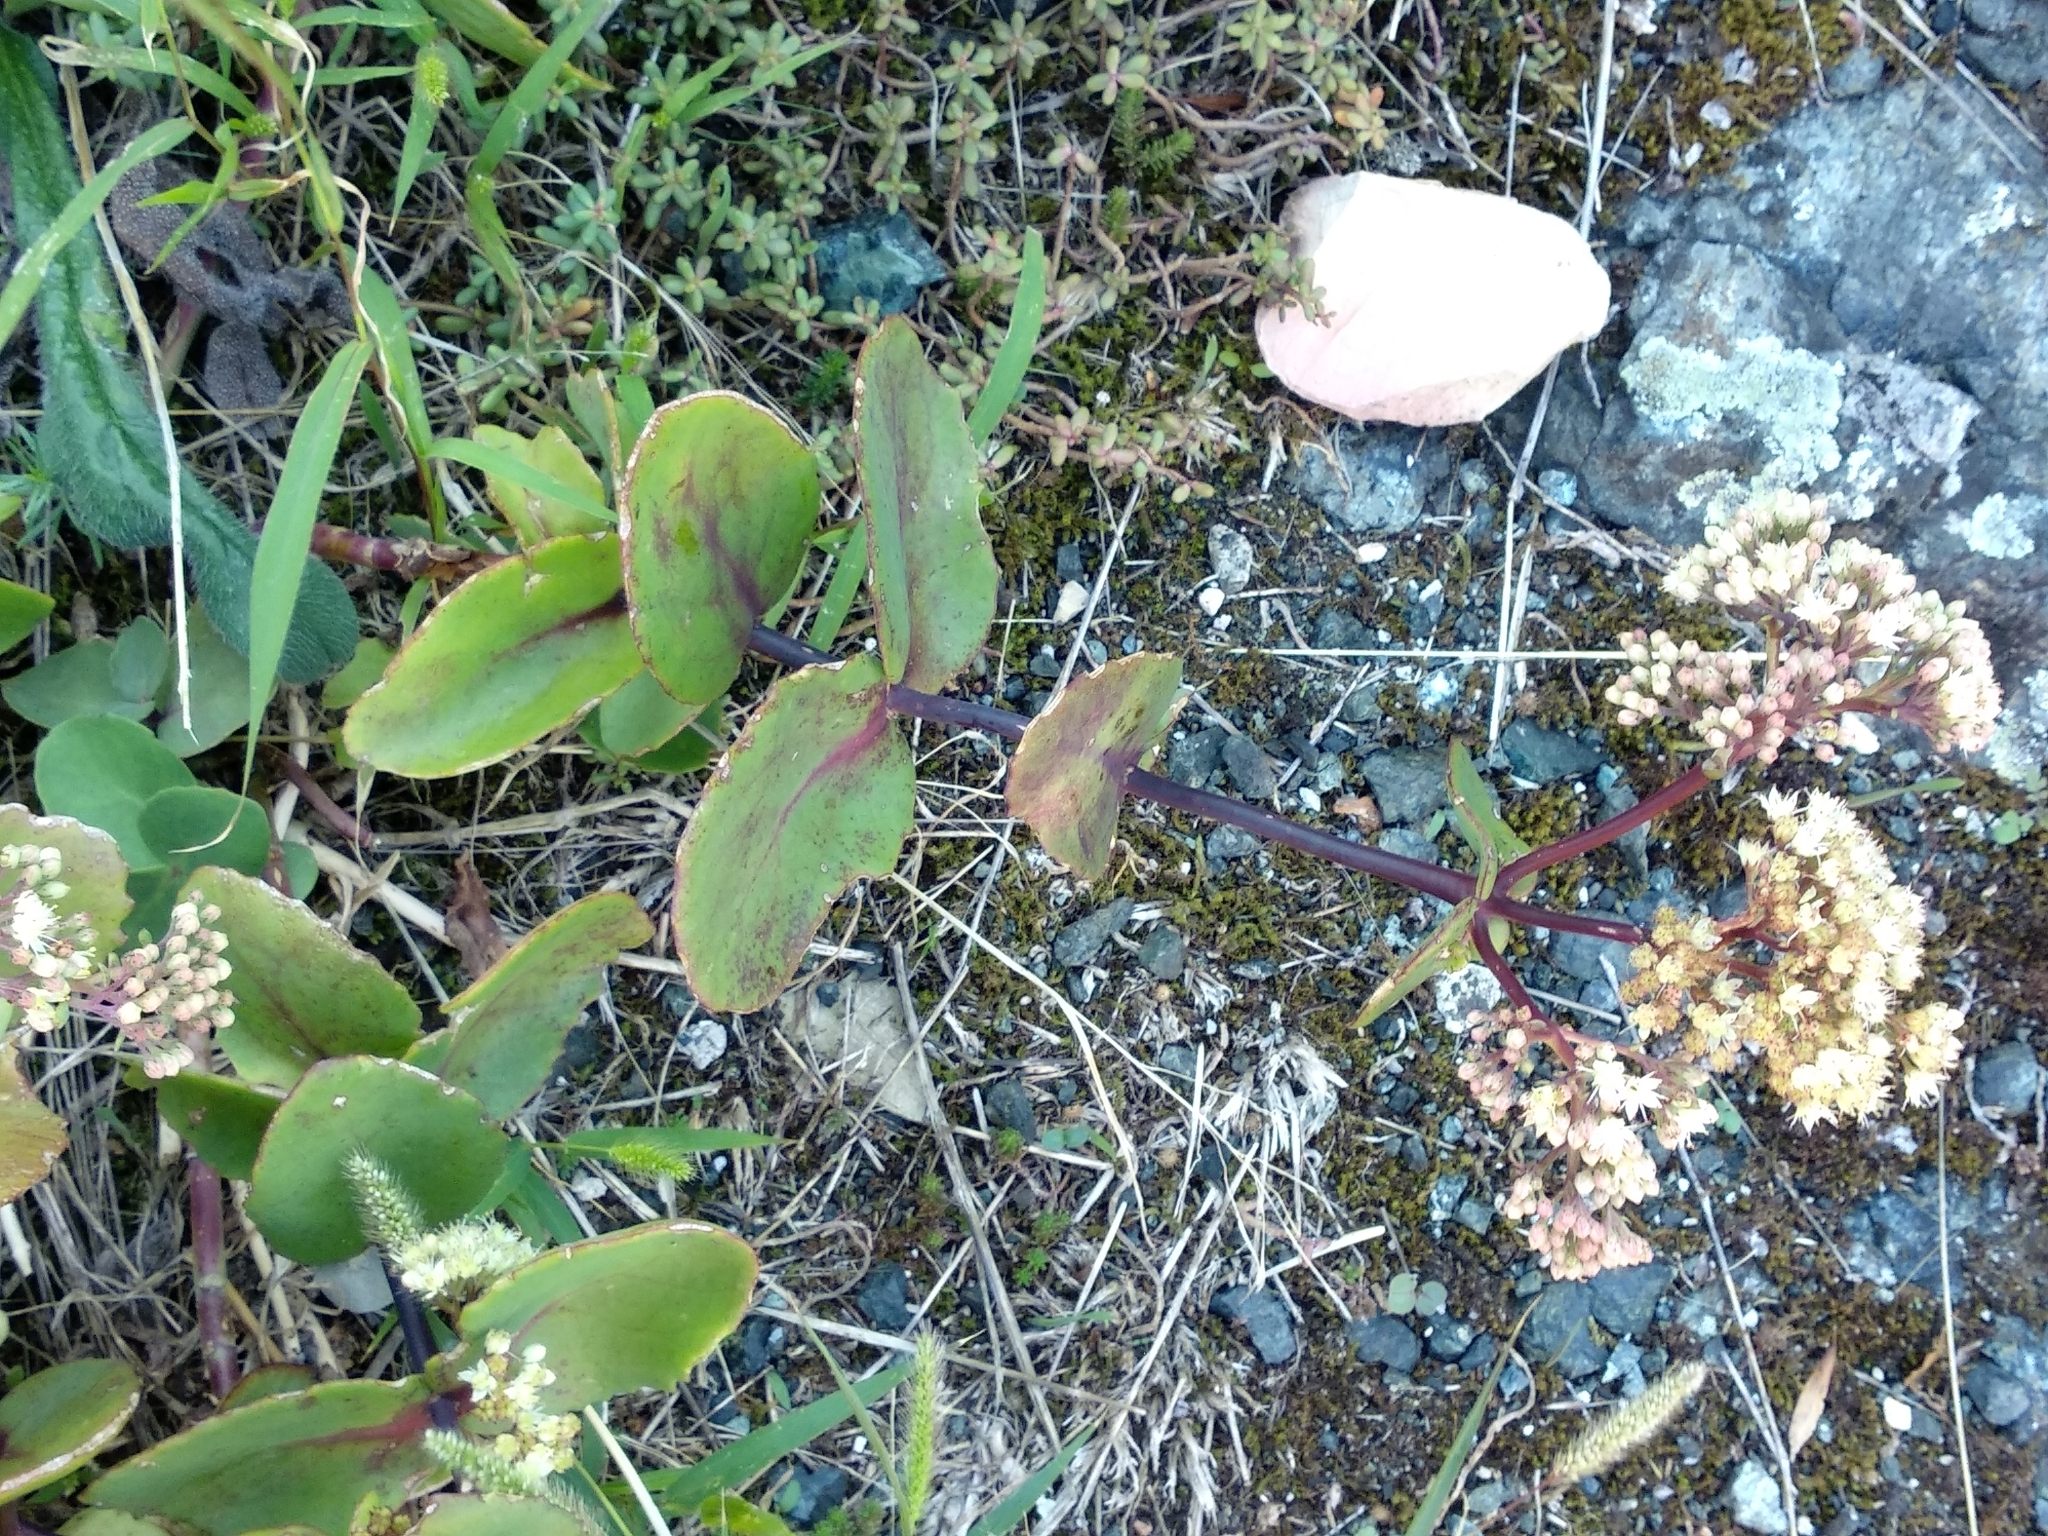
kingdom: Plantae
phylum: Tracheophyta
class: Magnoliopsida
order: Saxifragales
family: Crassulaceae
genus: Hylotelephium
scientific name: Hylotelephium maximum
